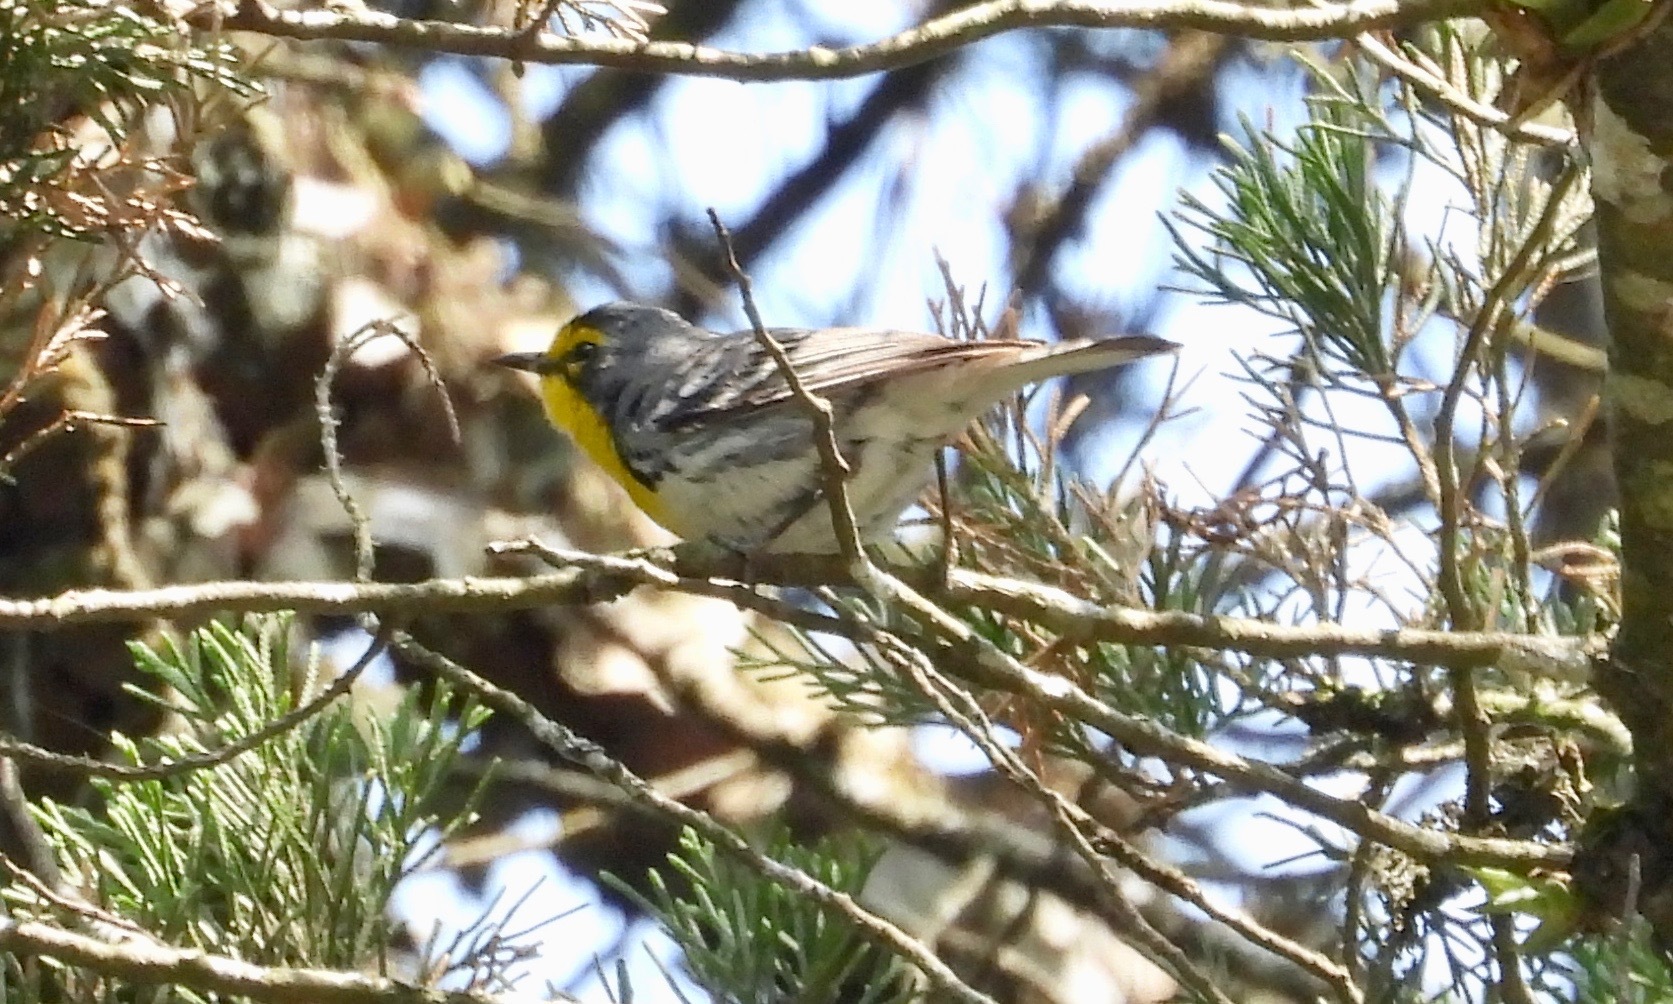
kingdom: Animalia
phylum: Chordata
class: Aves
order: Passeriformes
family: Parulidae
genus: Setophaga
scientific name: Setophaga graciae
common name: Grace's warbler
